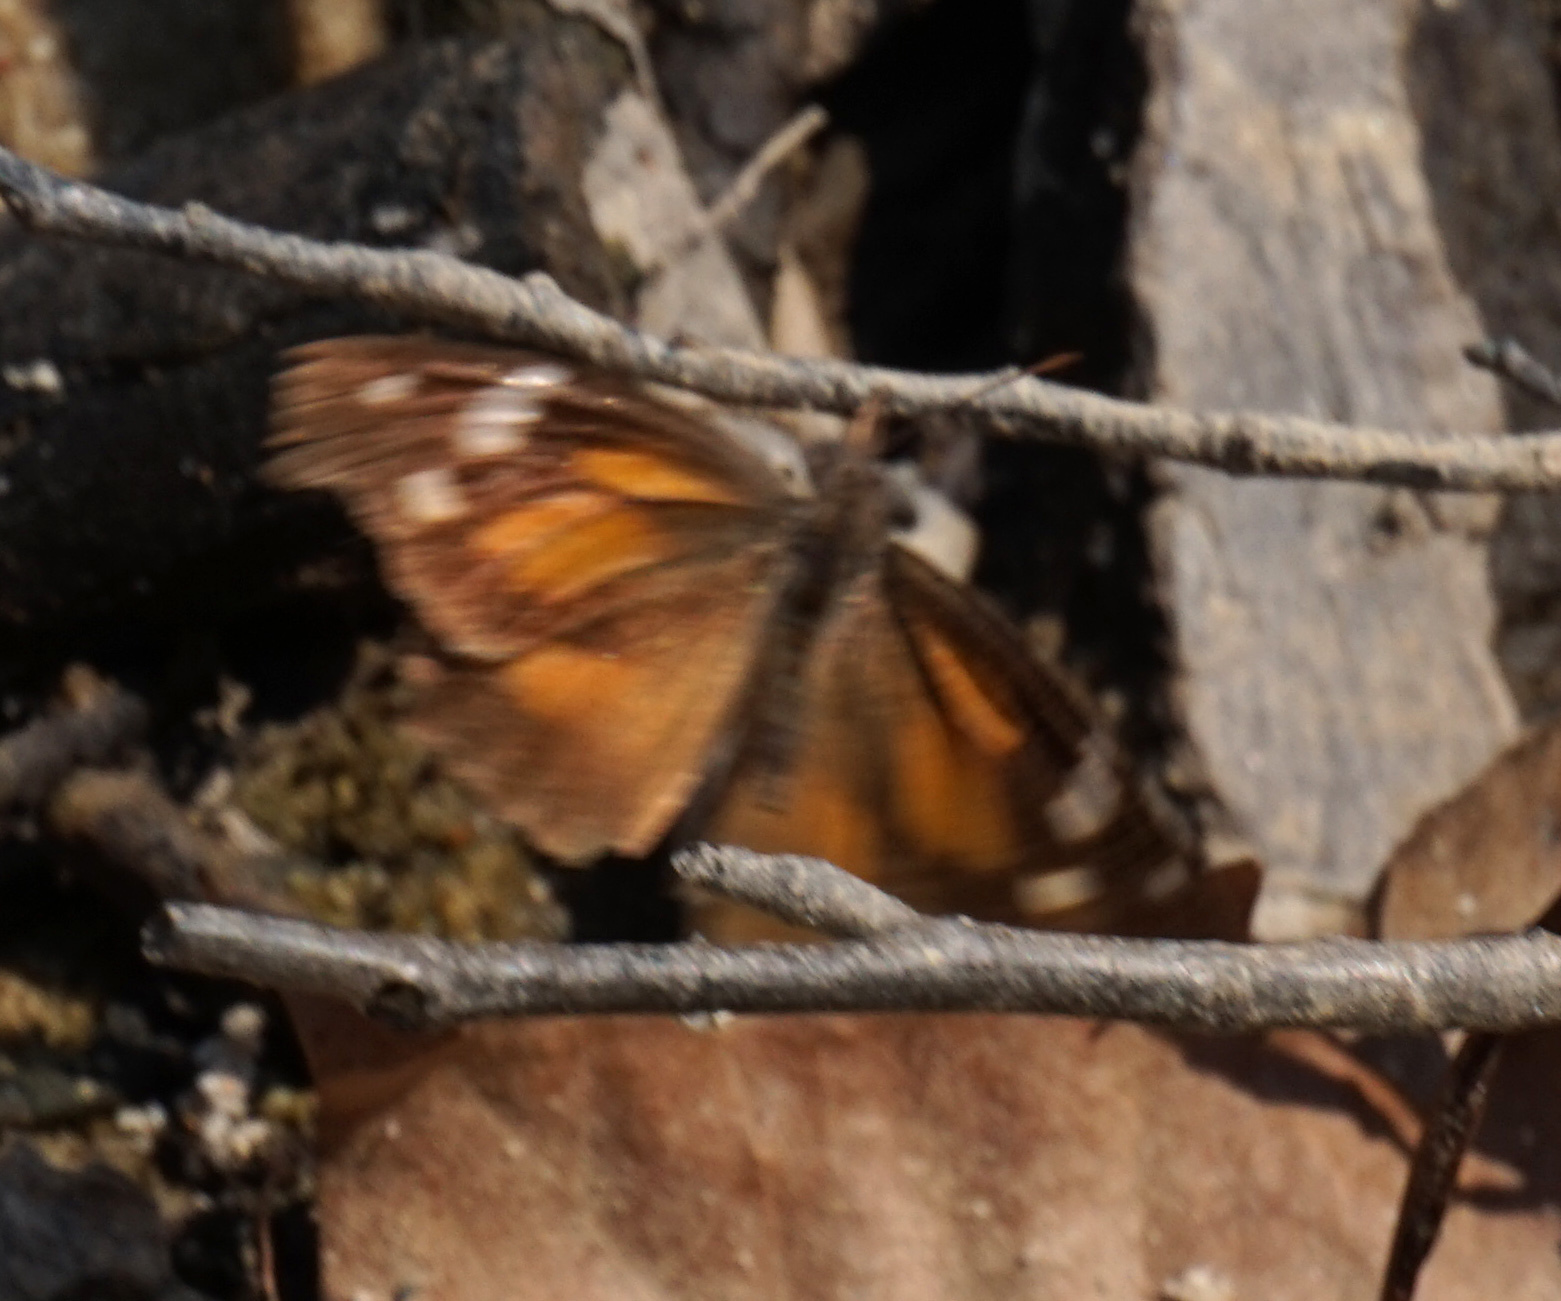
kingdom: Animalia
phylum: Arthropoda
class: Insecta
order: Lepidoptera
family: Nymphalidae
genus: Libytheana
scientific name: Libytheana carinenta
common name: American snout
